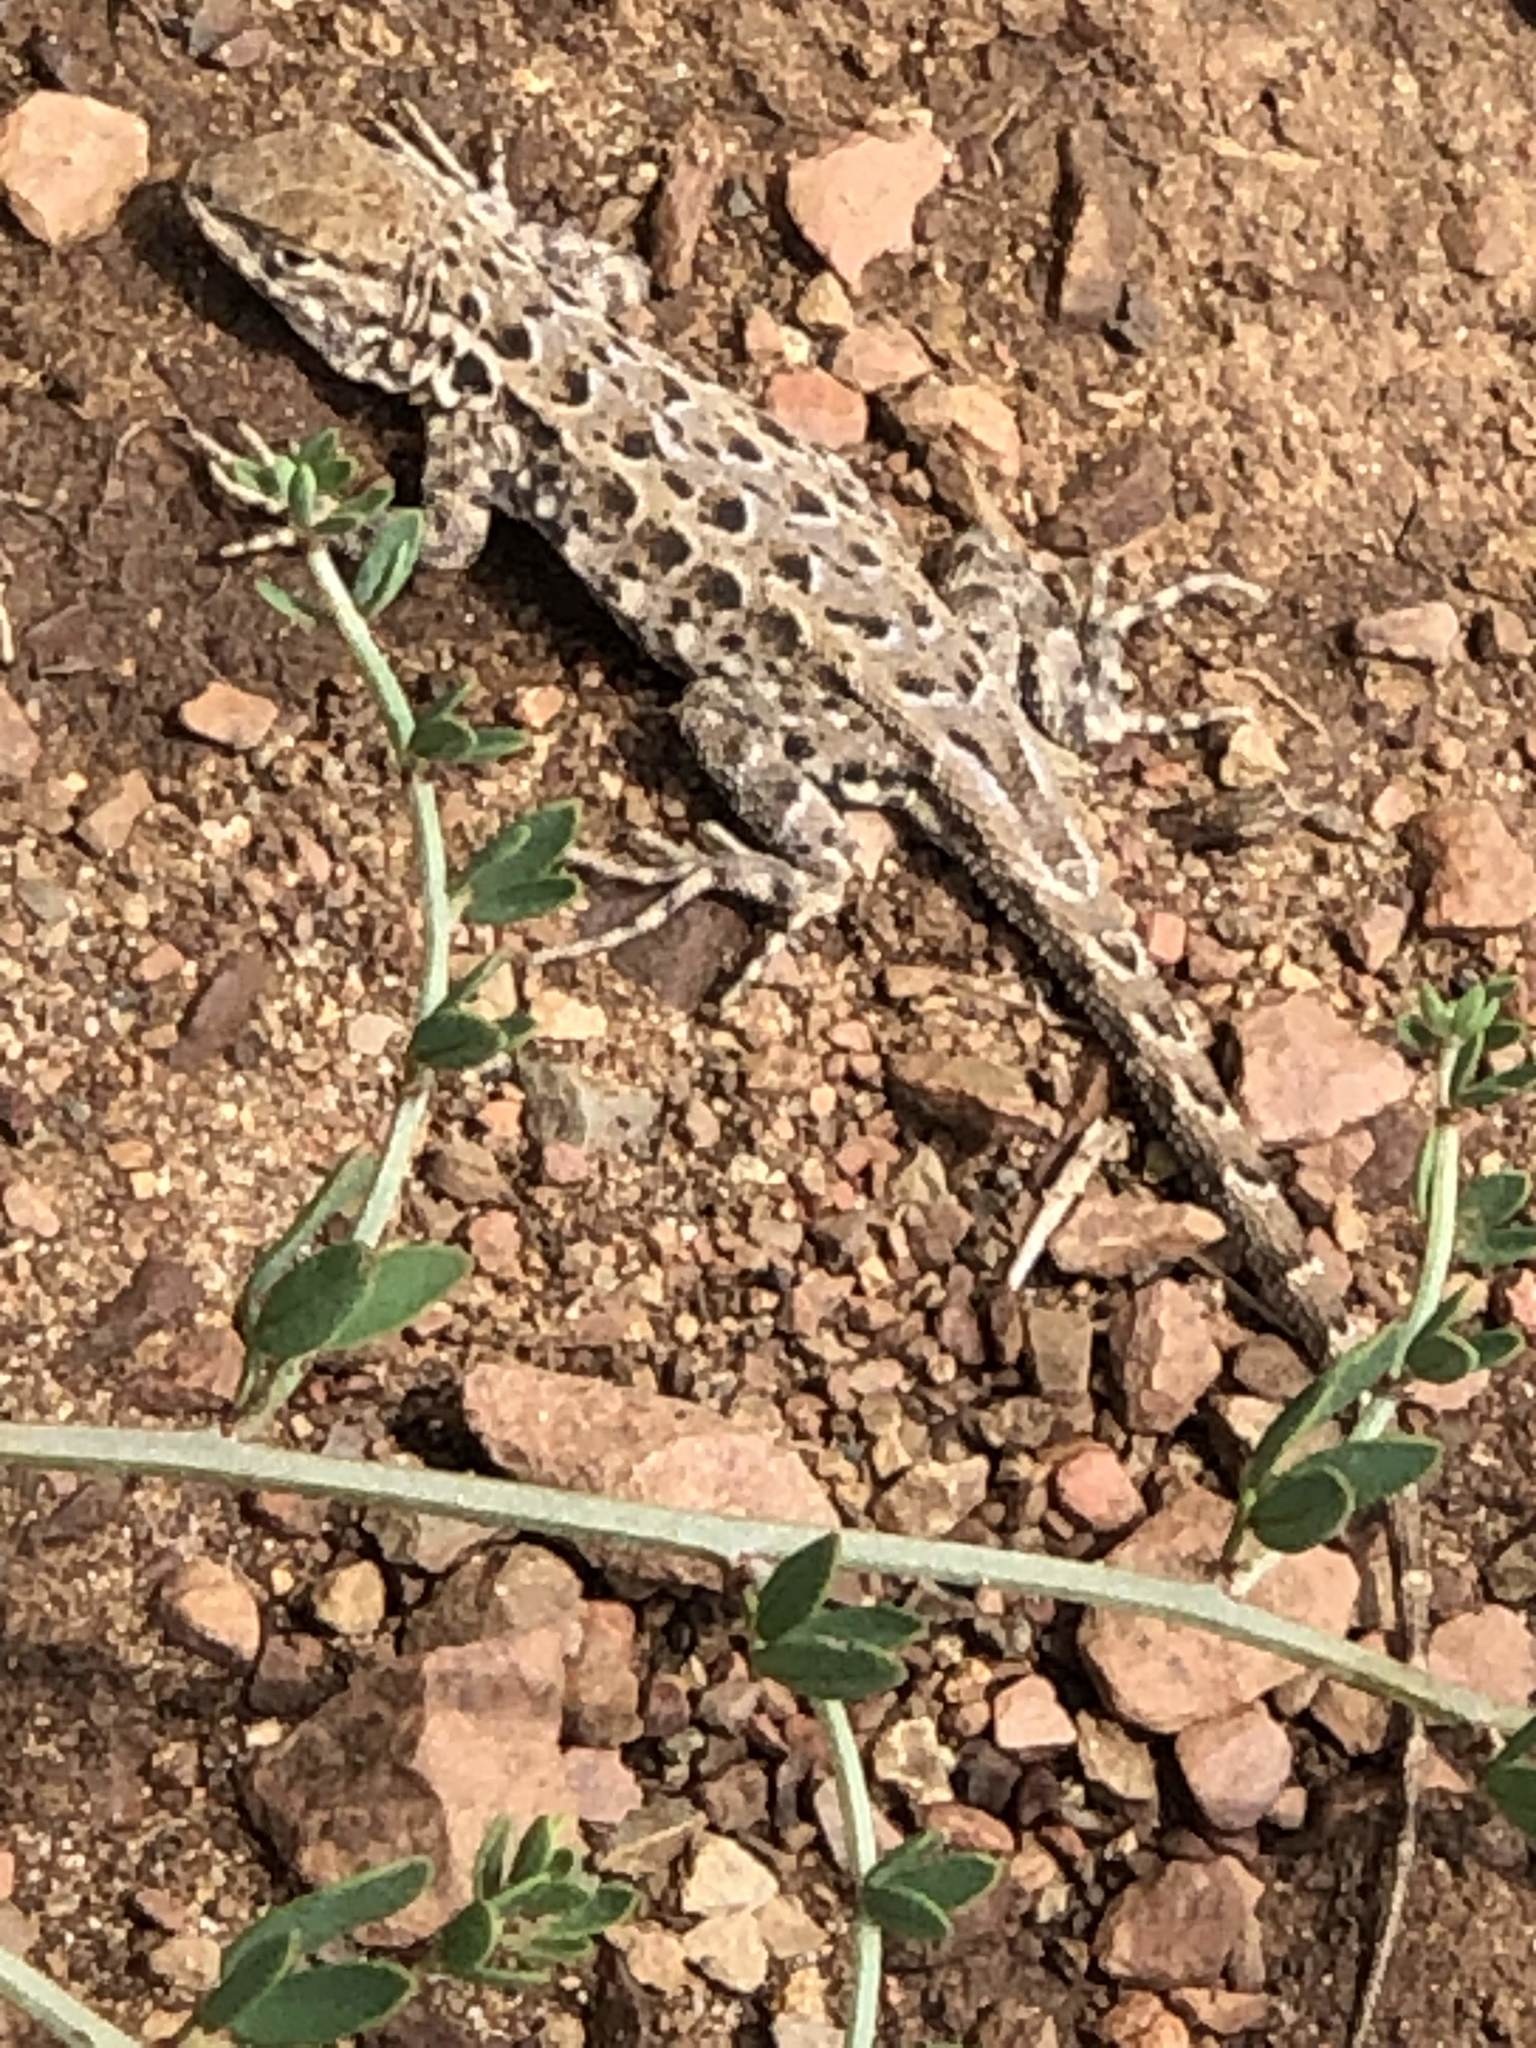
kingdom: Animalia
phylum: Chordata
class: Squamata
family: Phrynosomatidae
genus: Uta
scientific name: Uta stansburiana
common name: Side-blotched lizard
